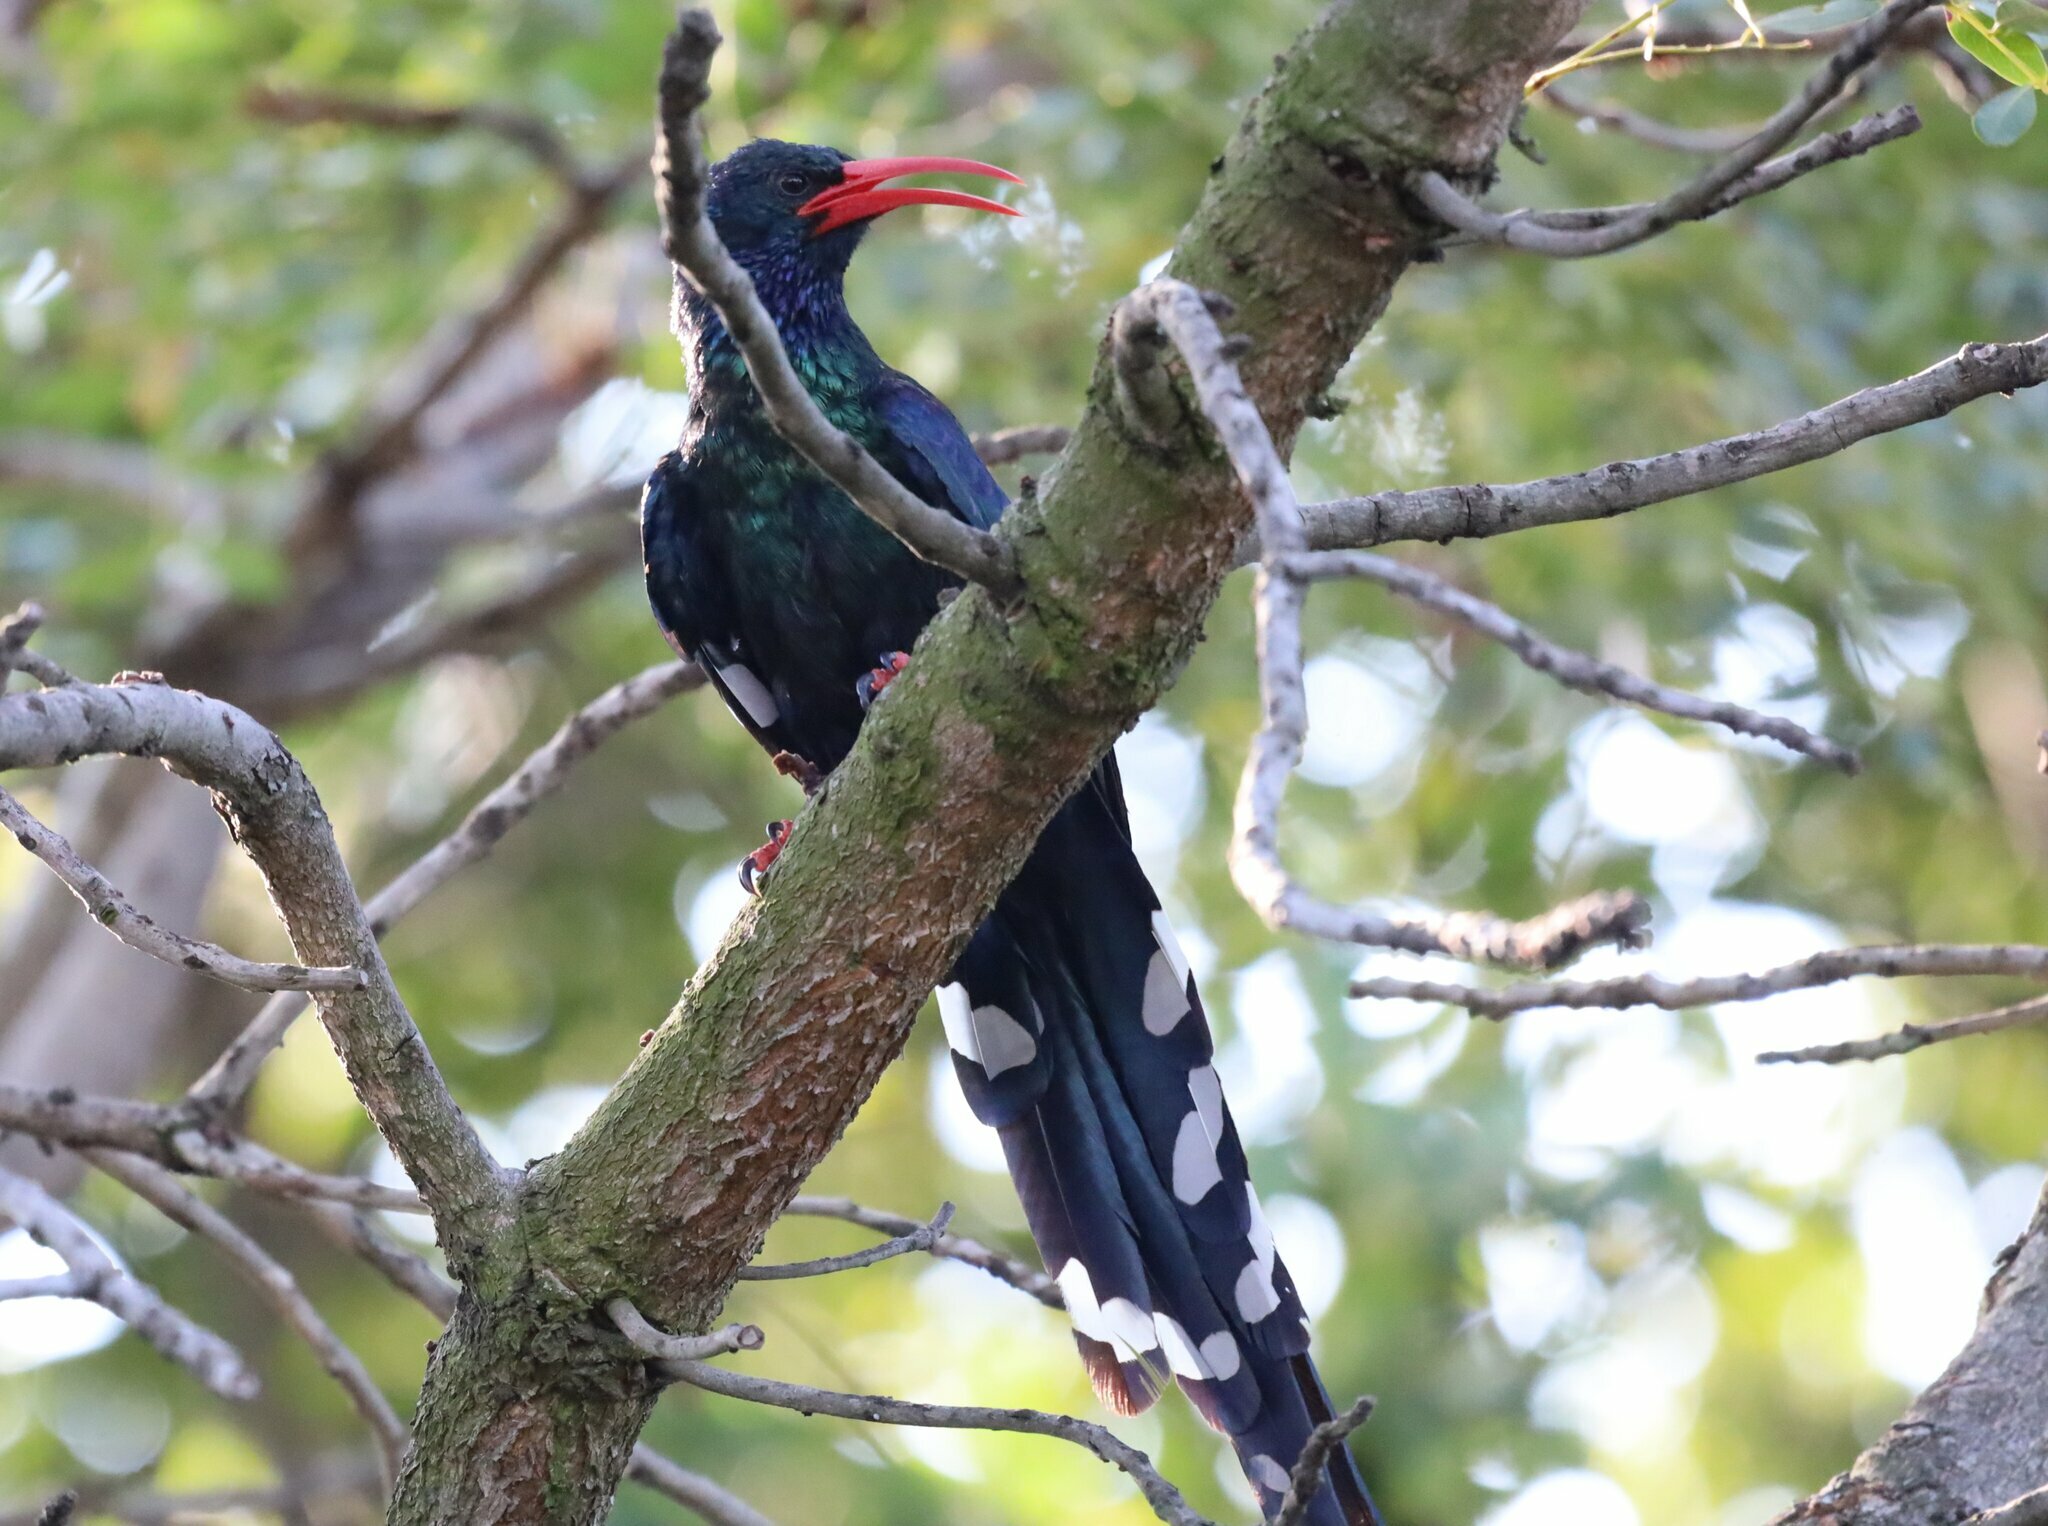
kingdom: Animalia
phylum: Chordata
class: Aves
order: Bucerotiformes
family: Phoeniculidae
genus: Phoeniculus
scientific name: Phoeniculus purpureus
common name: Green woodhoopoe
